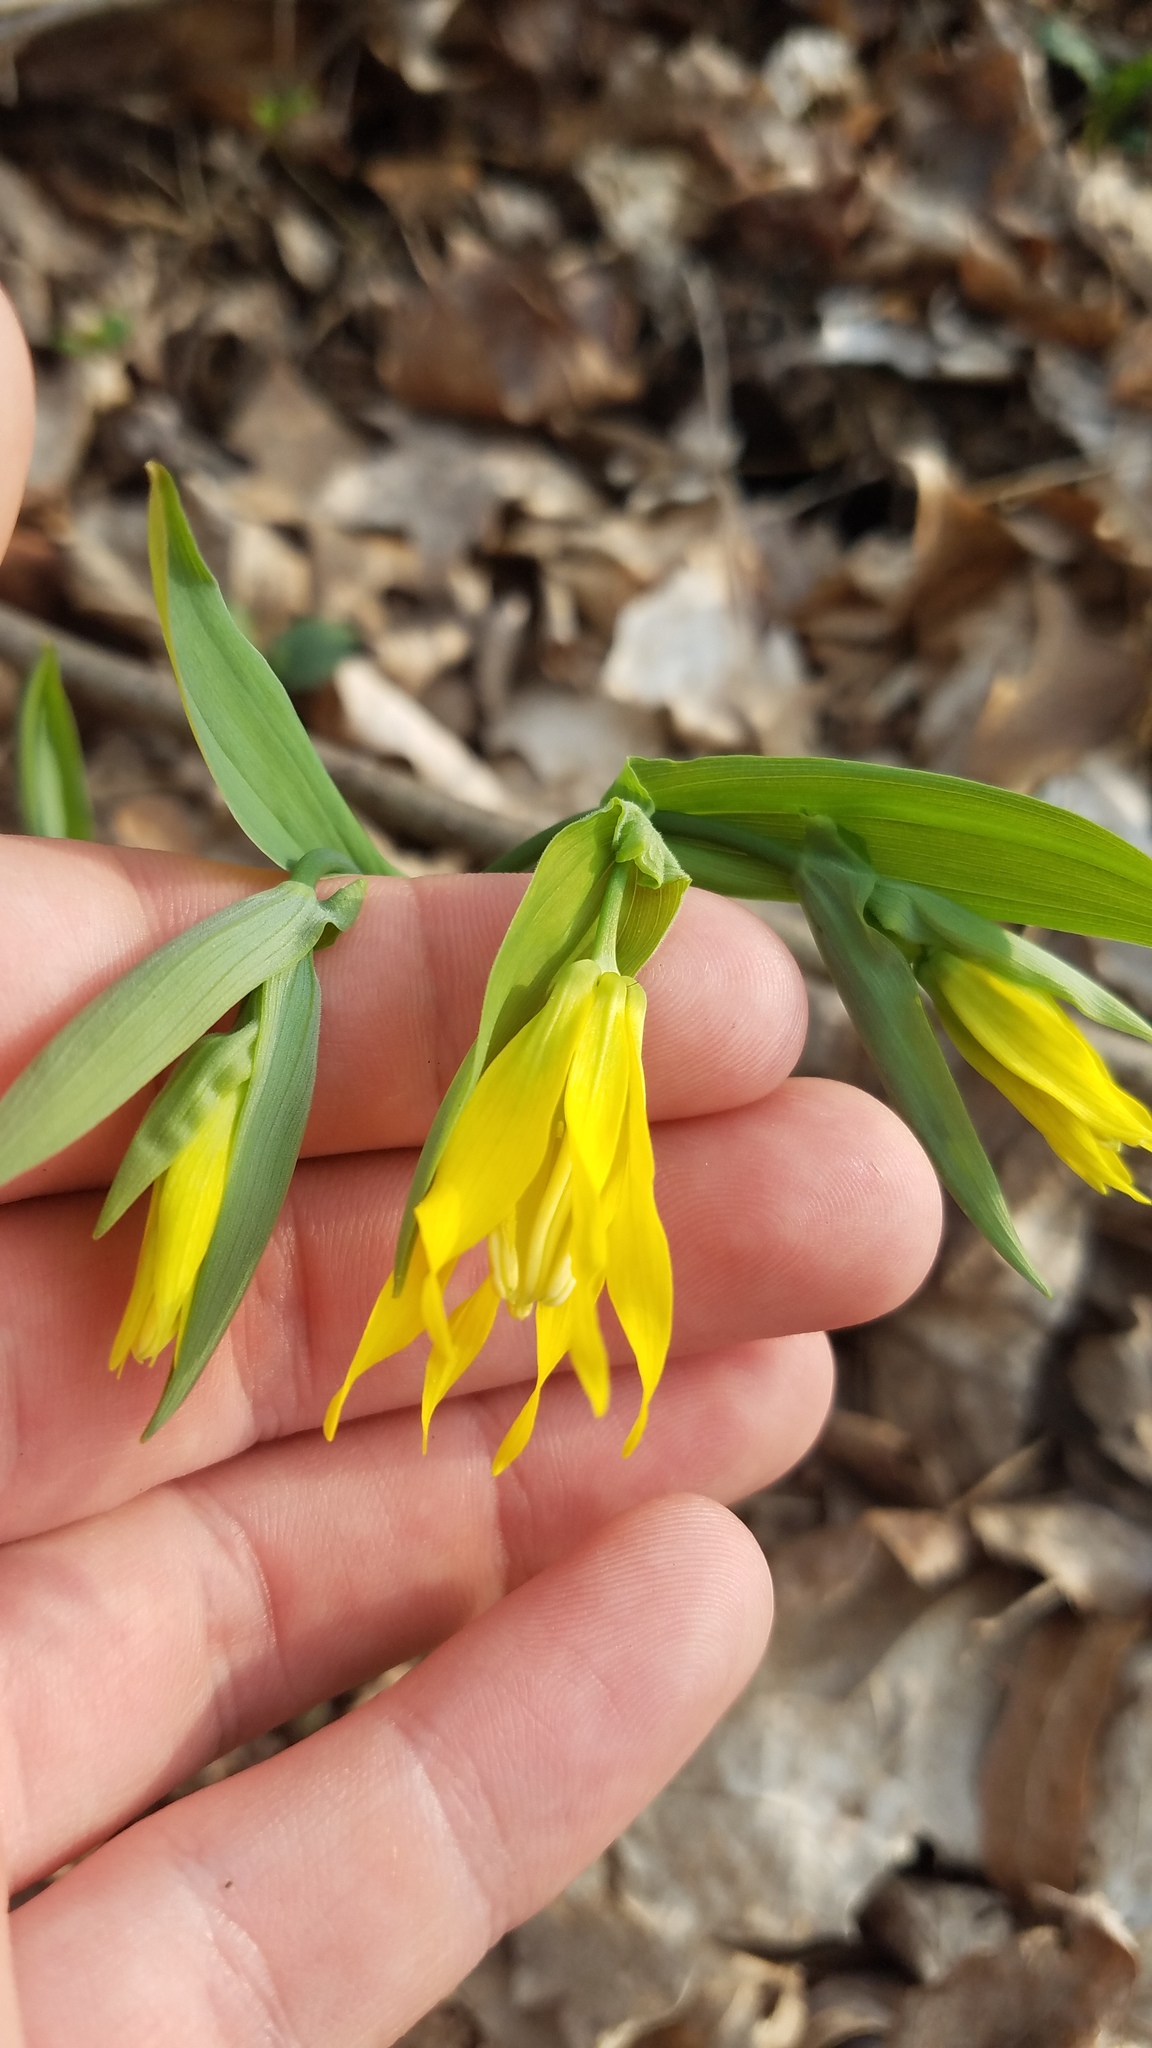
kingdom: Plantae
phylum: Tracheophyta
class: Liliopsida
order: Liliales
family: Colchicaceae
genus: Uvularia
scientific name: Uvularia grandiflora
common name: Bellwort
